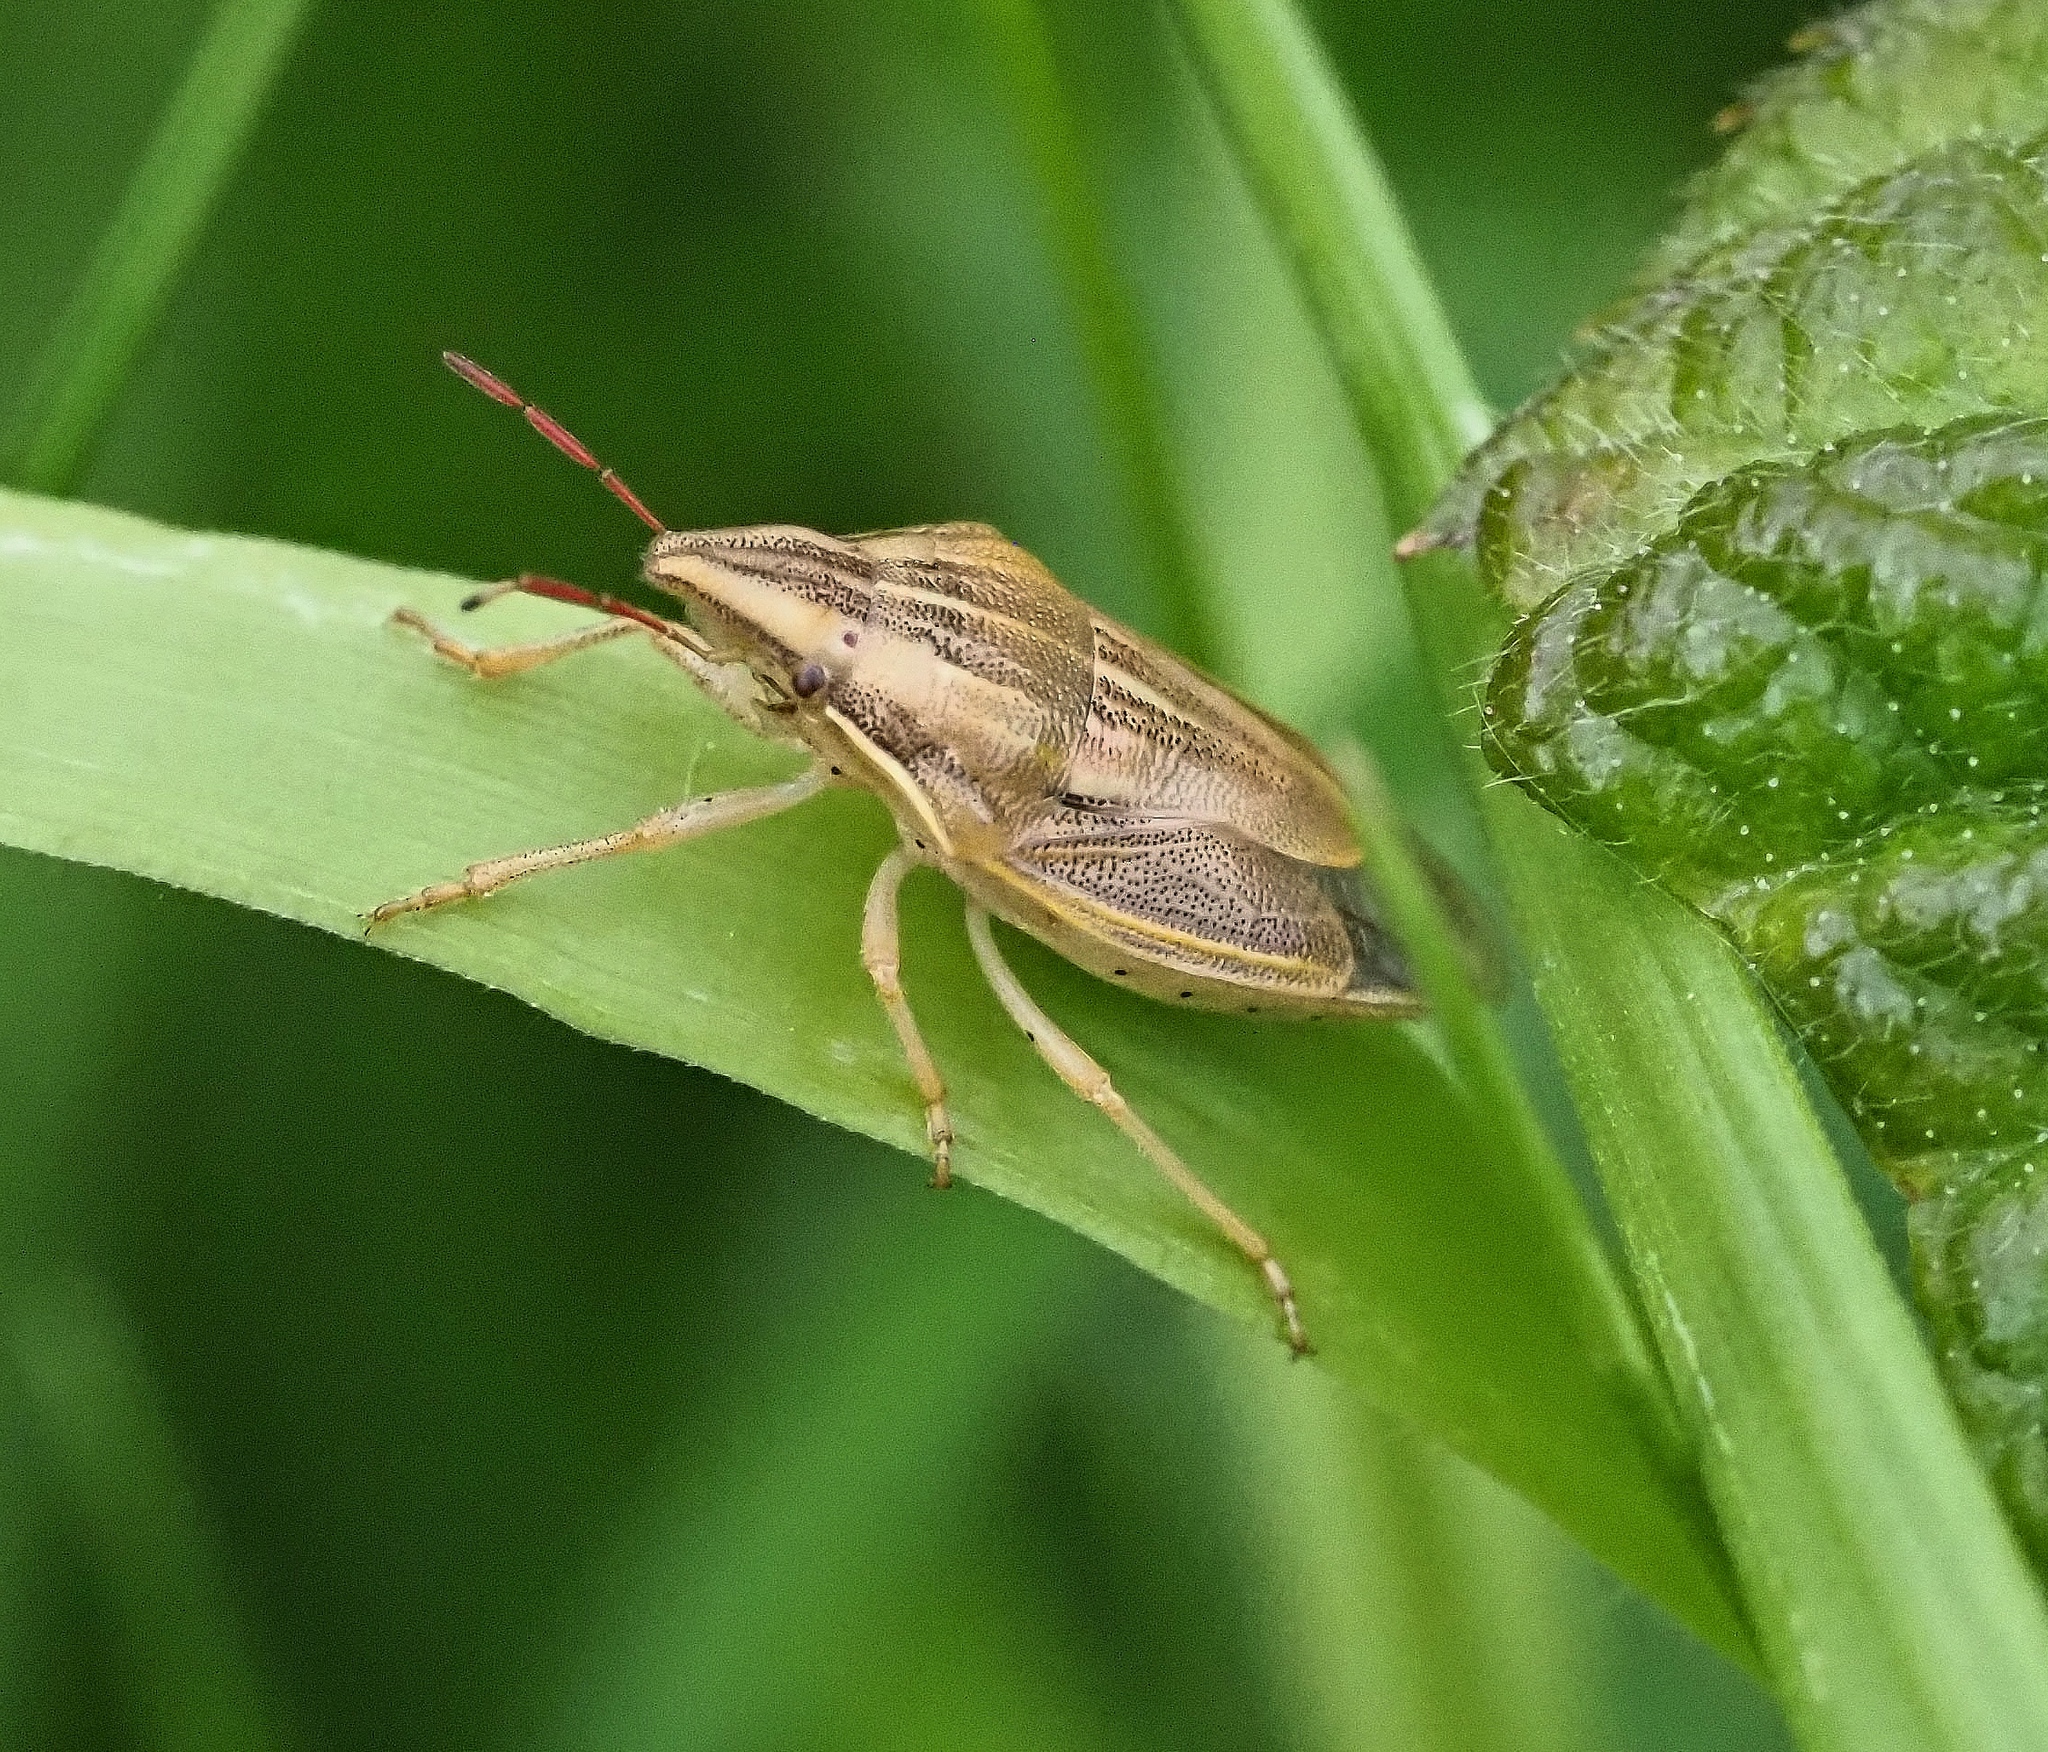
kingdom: Animalia
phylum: Arthropoda
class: Insecta
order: Hemiptera
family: Pentatomidae
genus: Aelia
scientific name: Aelia acuminata
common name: Bishop's mitre
